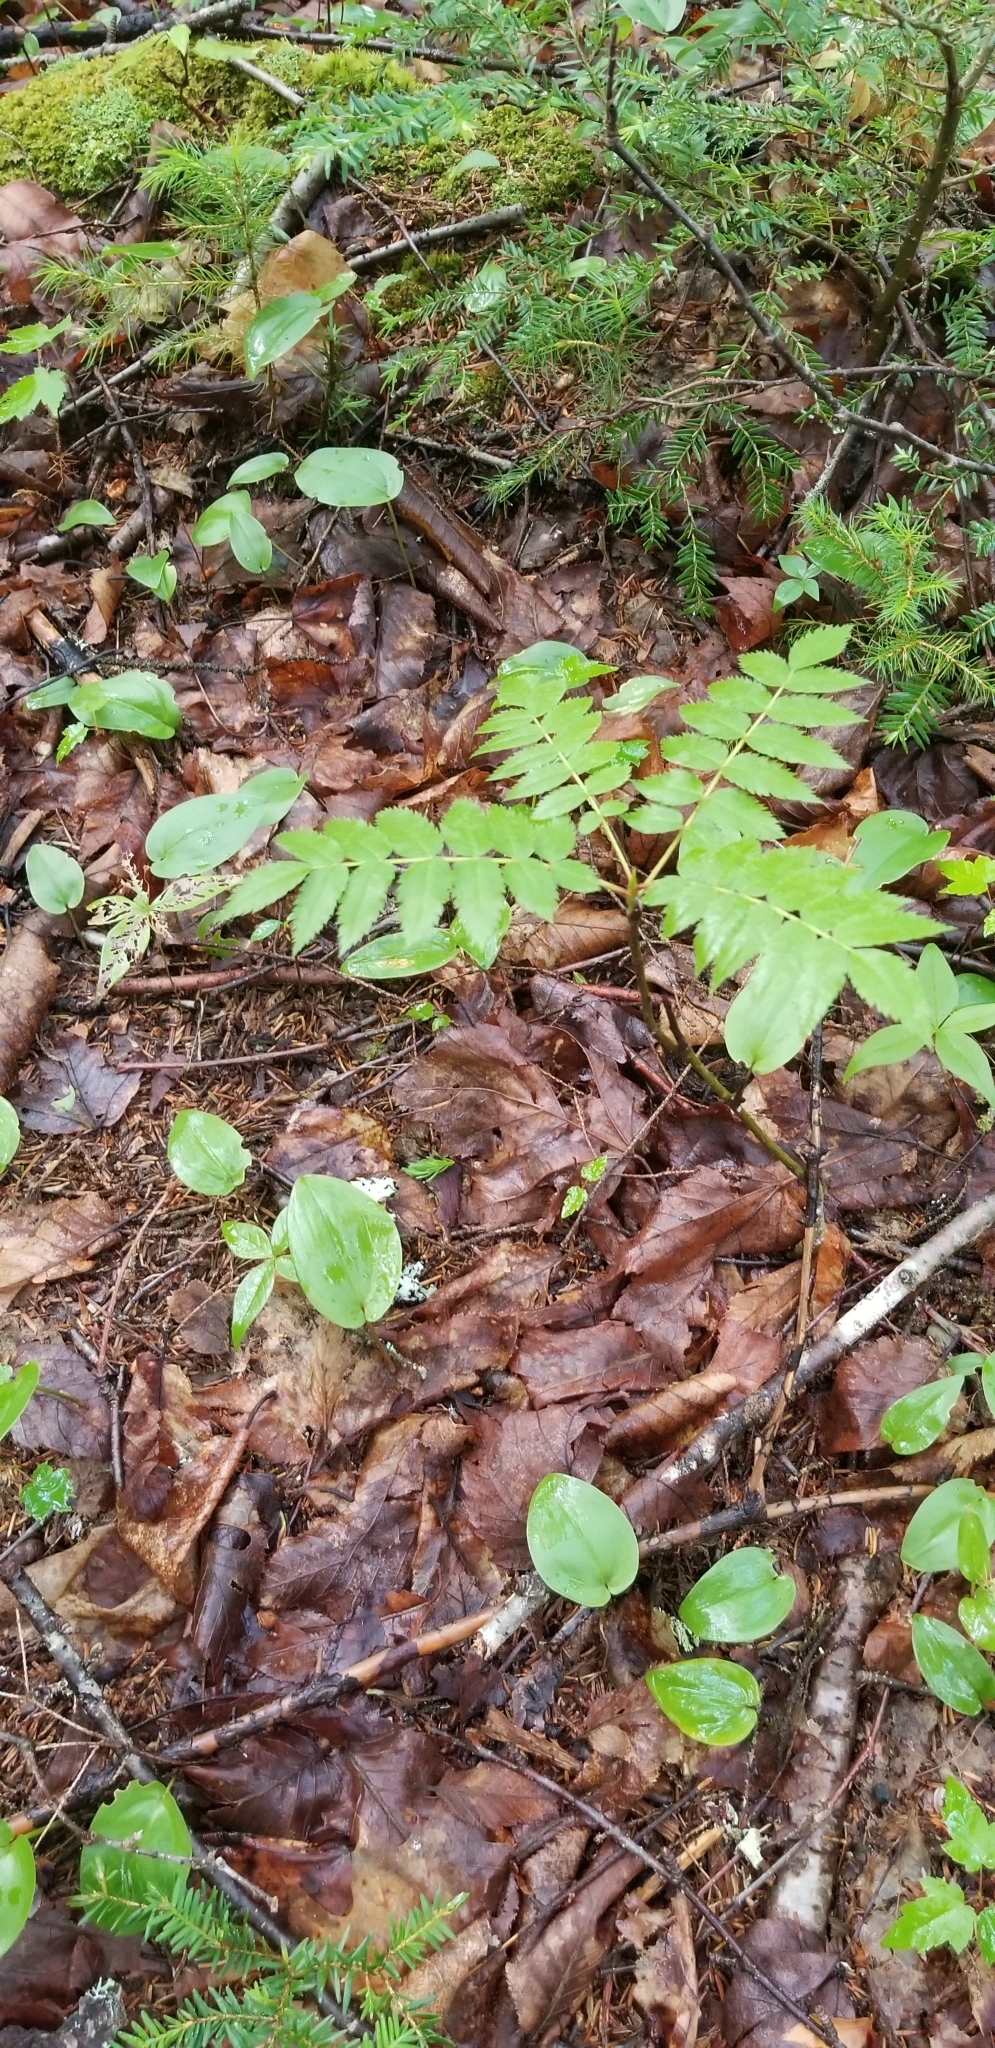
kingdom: Plantae
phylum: Tracheophyta
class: Liliopsida
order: Asparagales
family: Asparagaceae
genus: Maianthemum
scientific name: Maianthemum canadense
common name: False lily-of-the-valley
